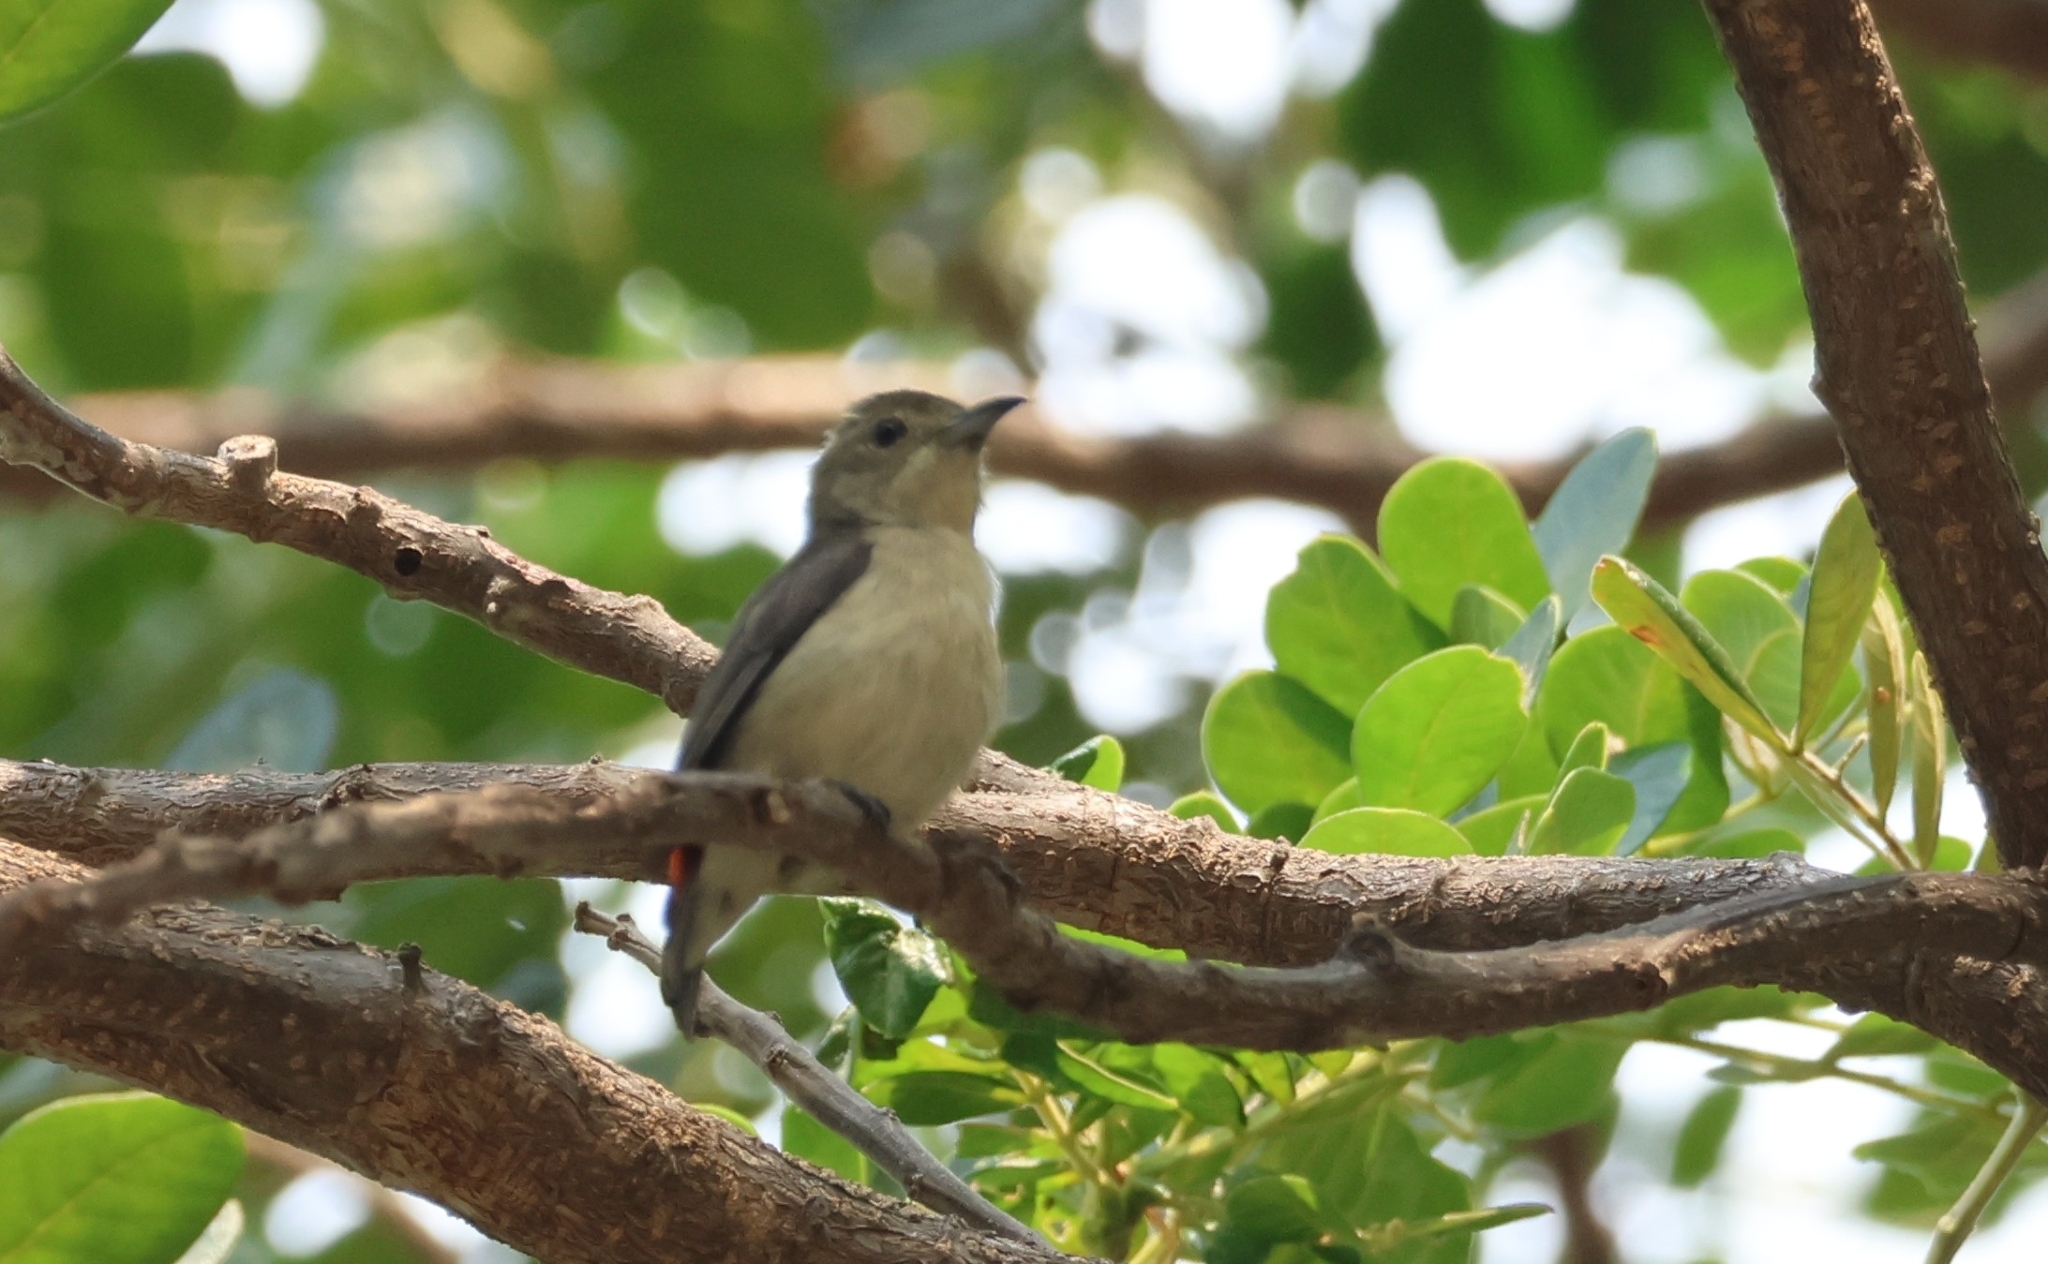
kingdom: Animalia
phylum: Chordata
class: Aves
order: Passeriformes
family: Dicaeidae
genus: Dicaeum
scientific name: Dicaeum cruentatum
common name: Scarlet-backed flowerpecker
